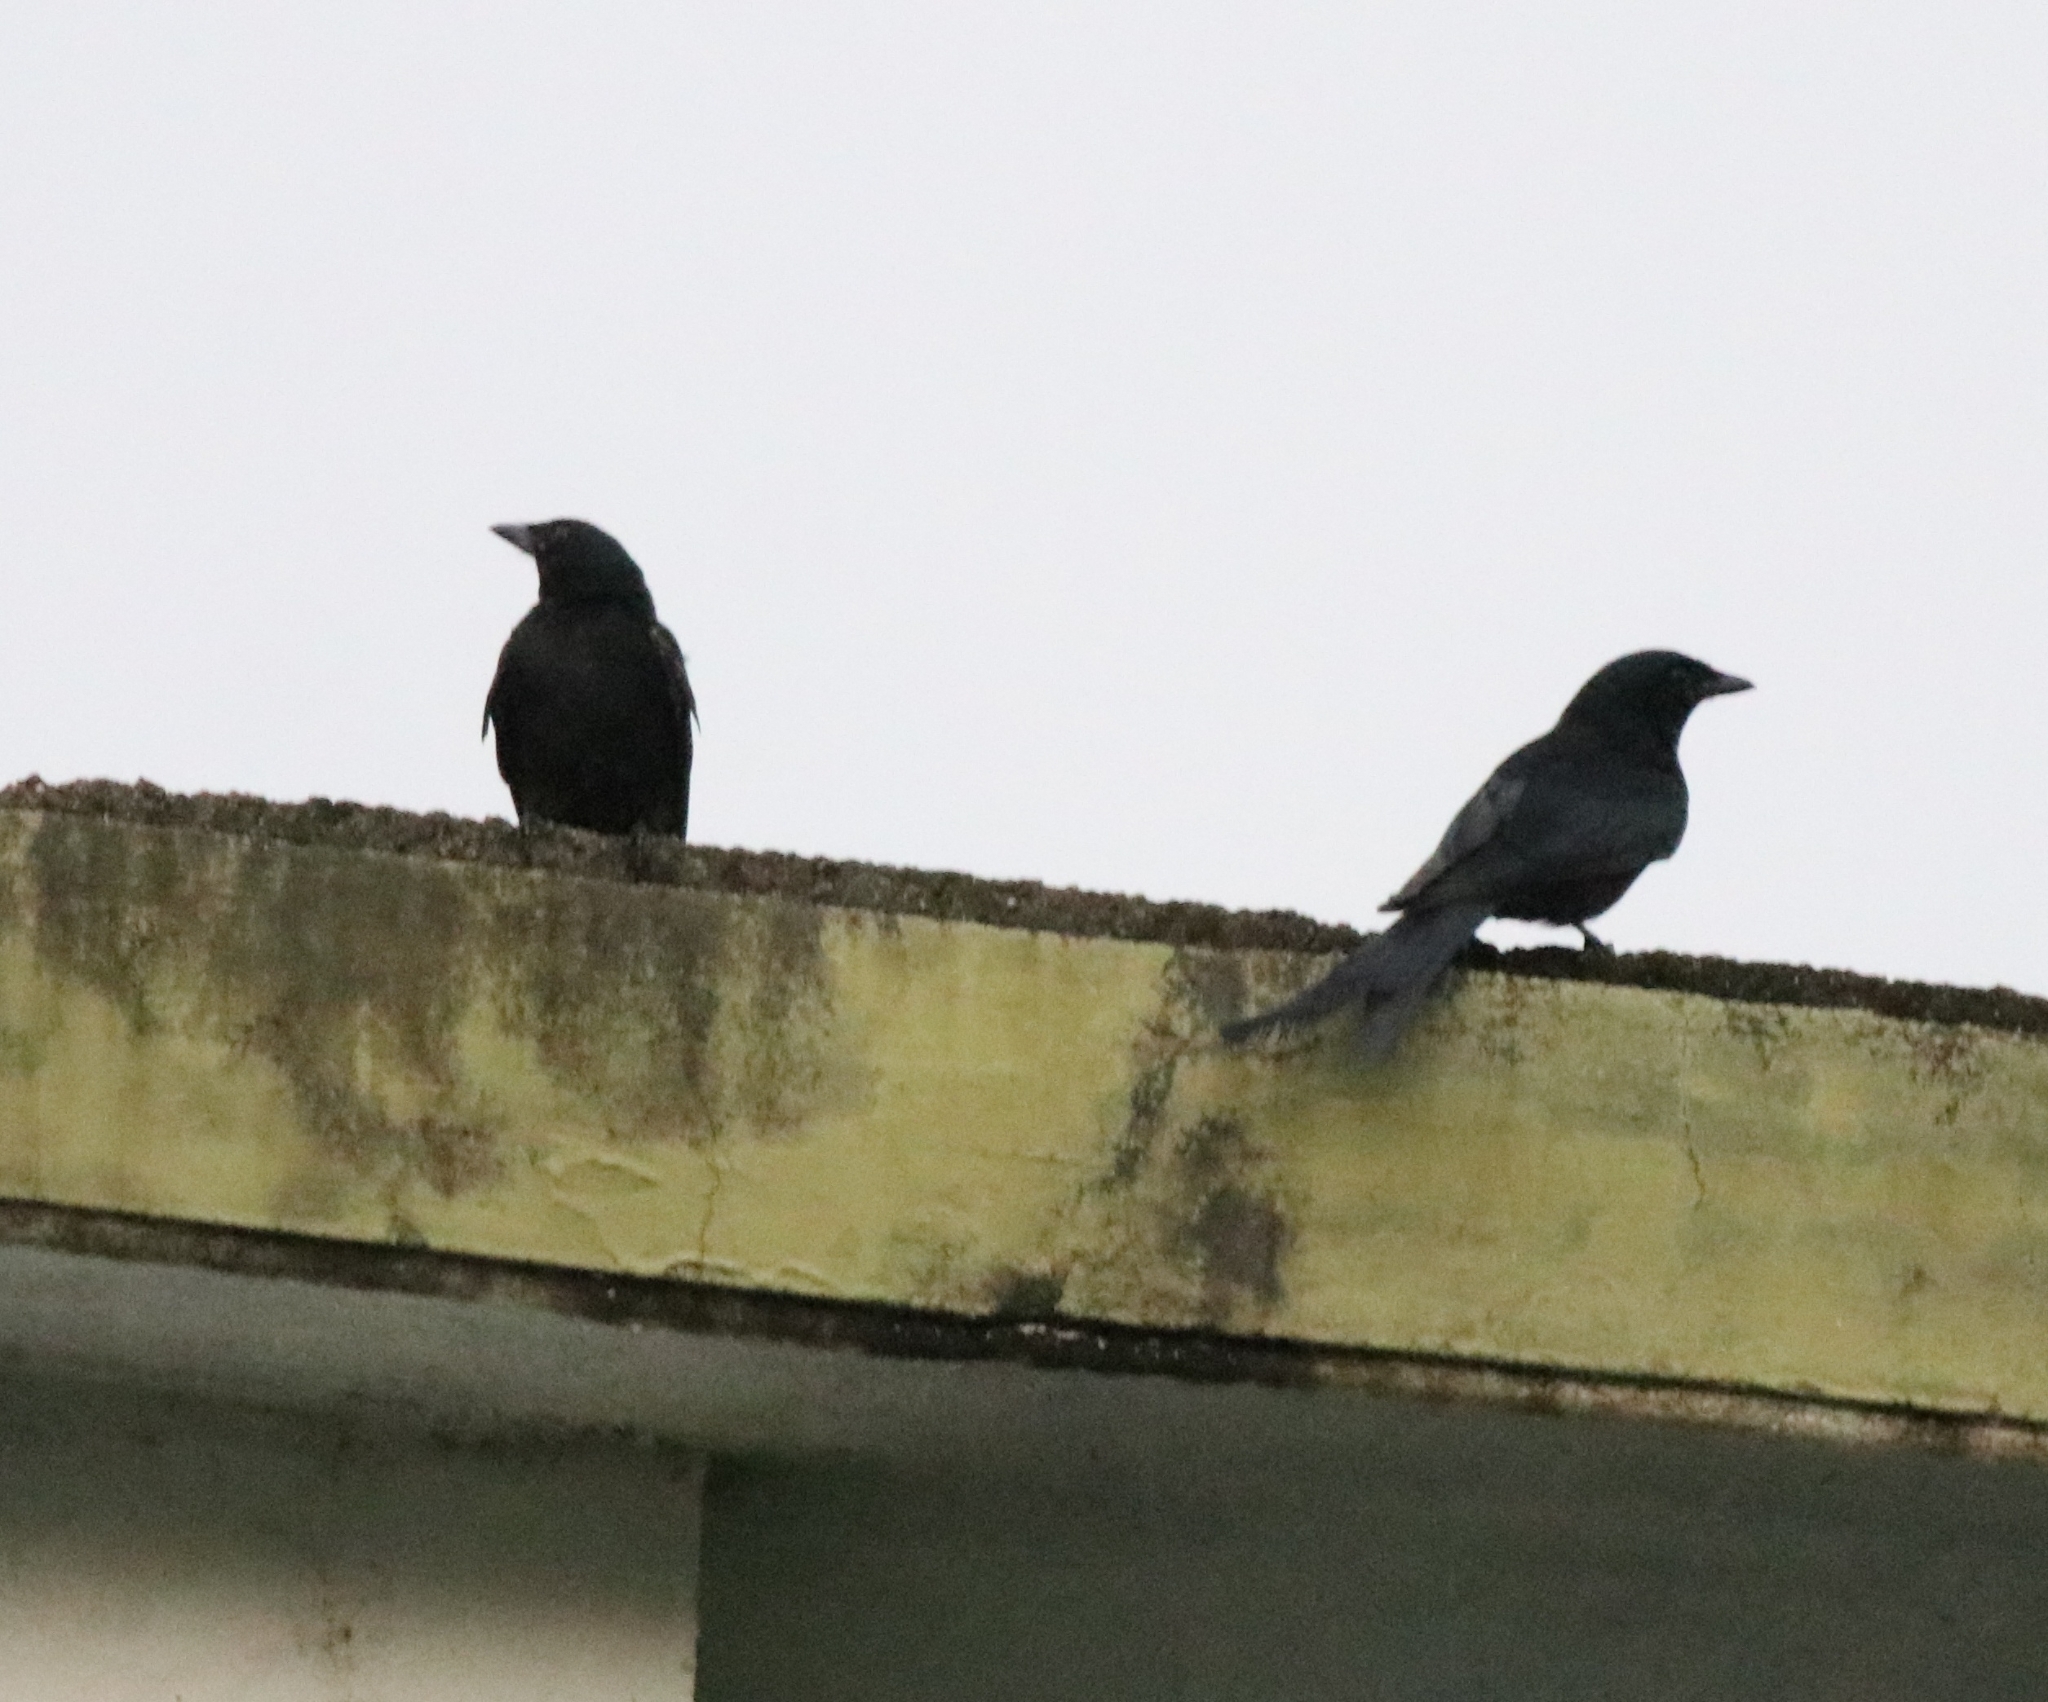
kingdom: Animalia
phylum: Chordata
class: Aves
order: Passeriformes
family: Dicruridae
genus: Dicrurus
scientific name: Dicrurus macrocercus
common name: Black drongo
